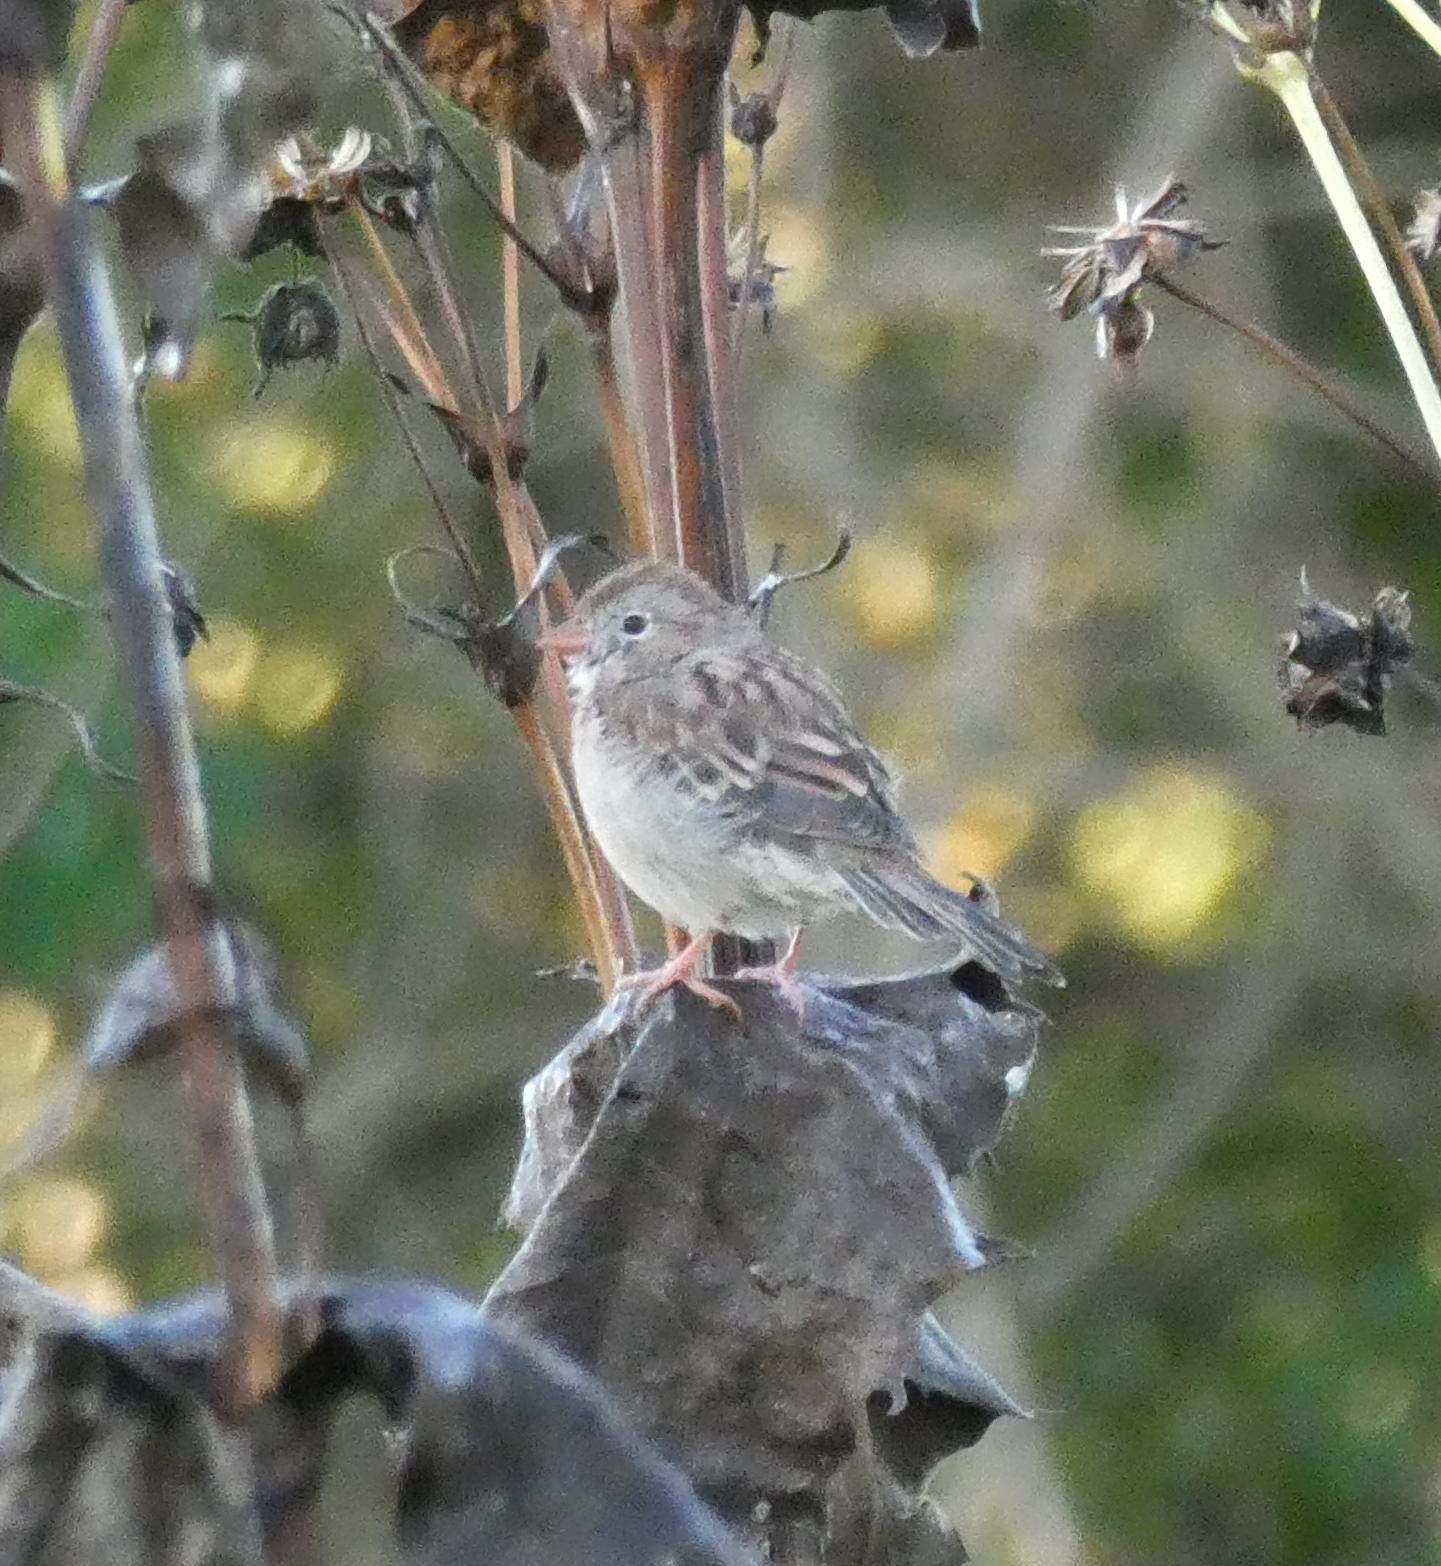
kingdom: Animalia
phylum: Chordata
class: Aves
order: Passeriformes
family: Passerellidae
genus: Spizella
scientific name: Spizella pusilla
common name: Field sparrow
